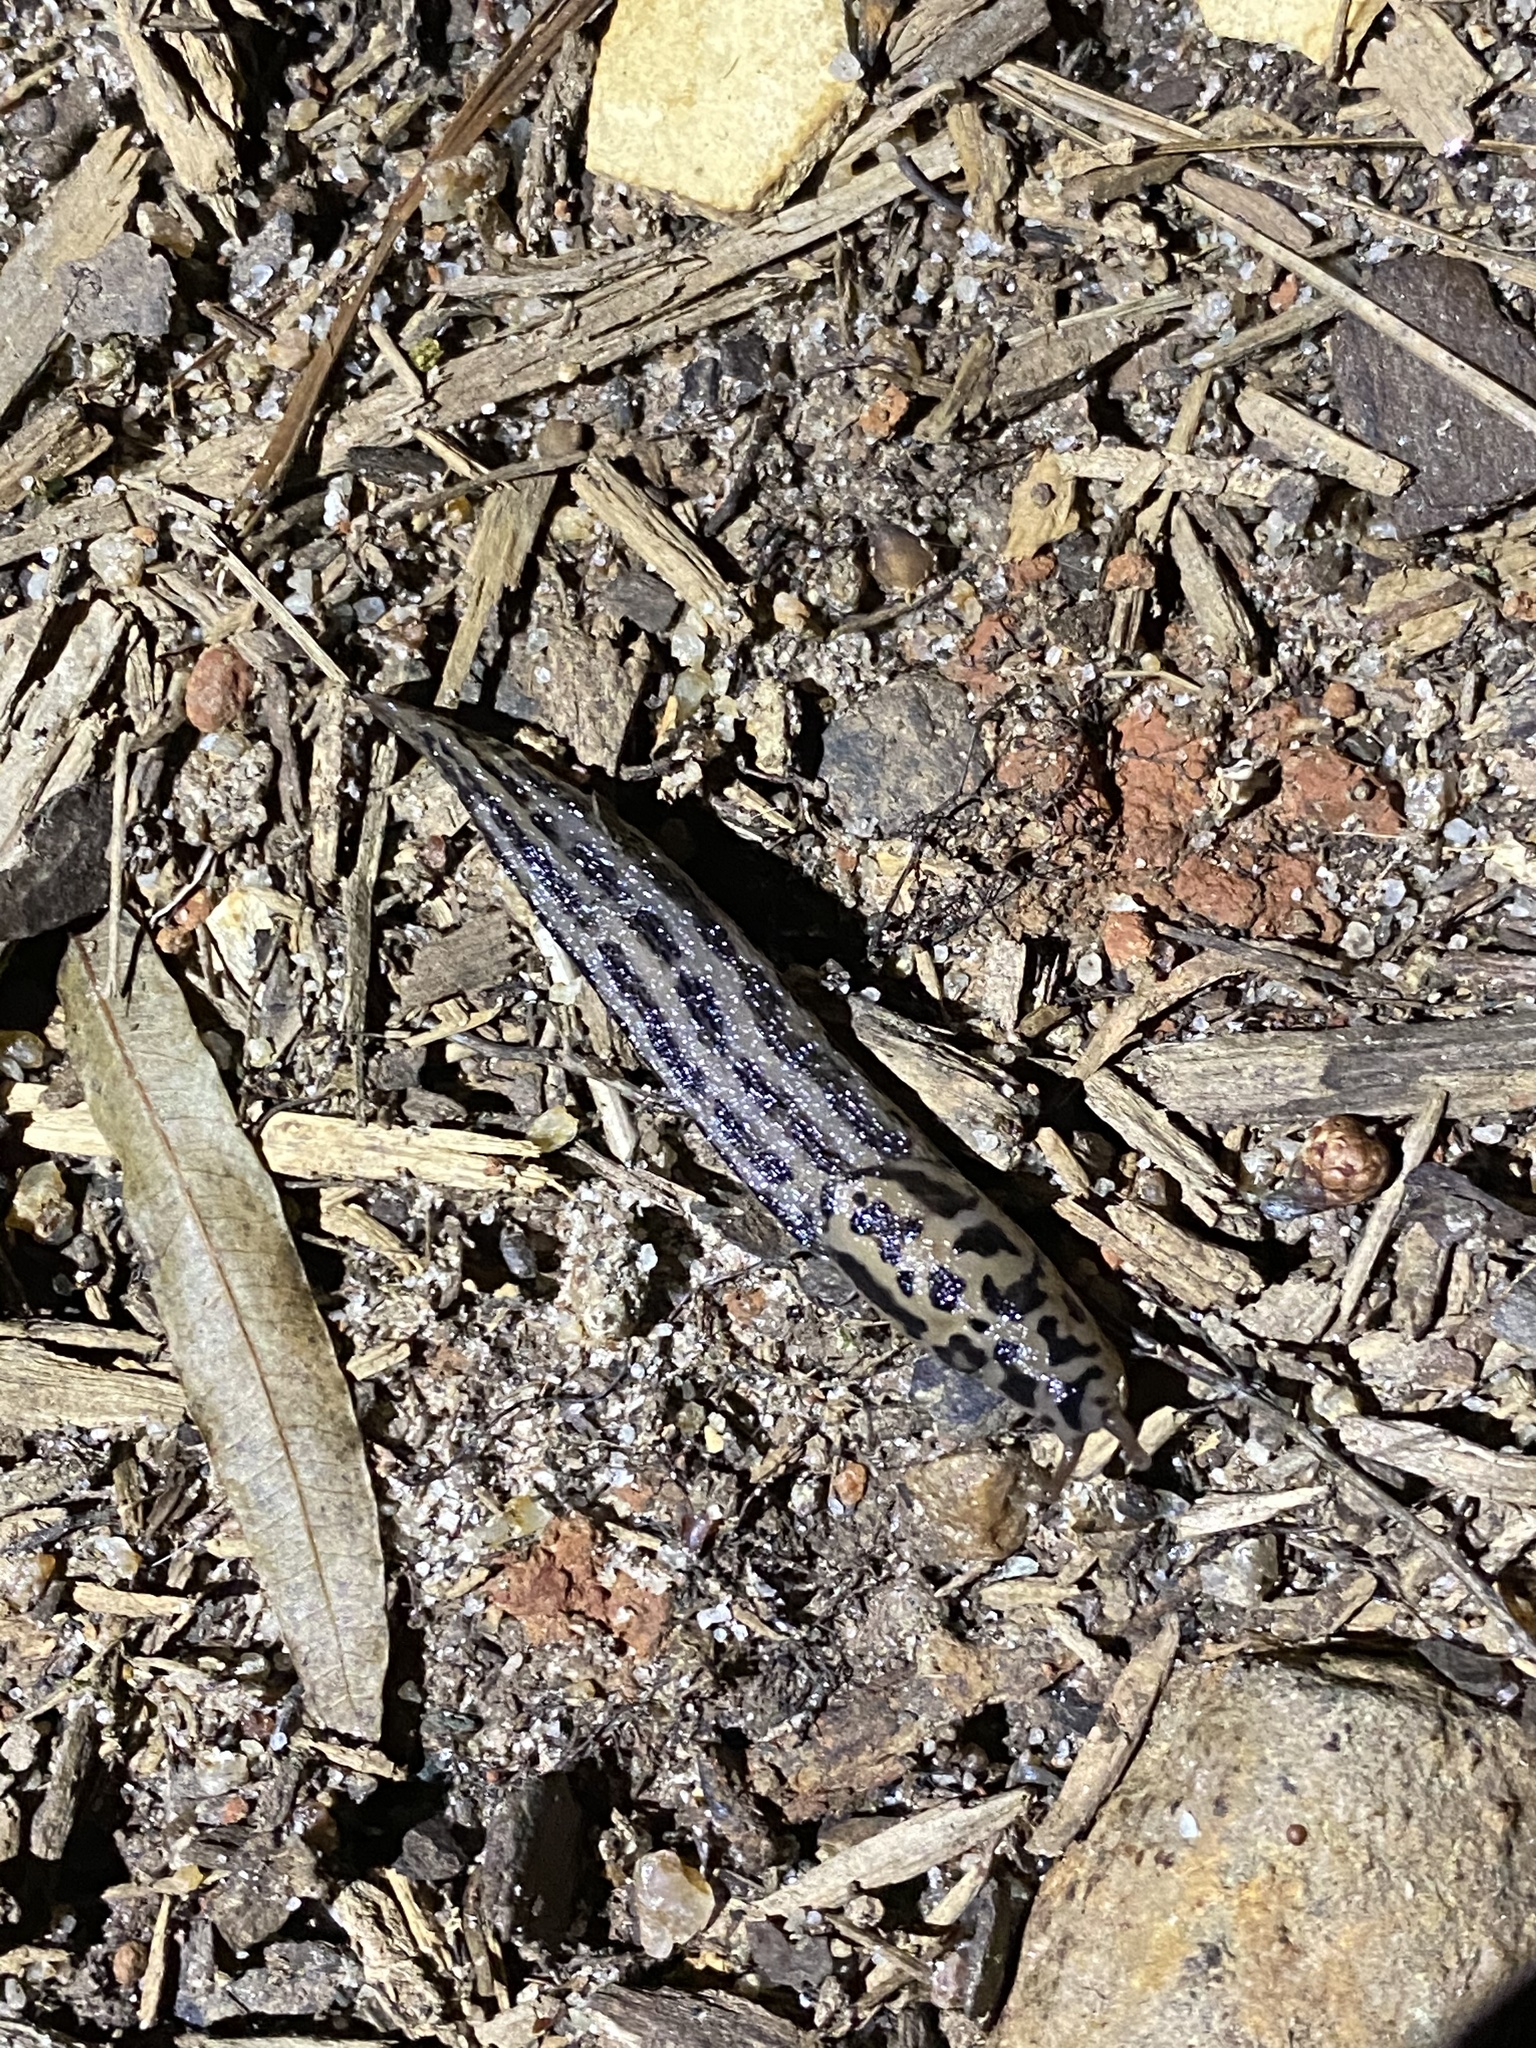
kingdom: Animalia
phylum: Mollusca
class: Gastropoda
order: Stylommatophora
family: Limacidae
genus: Limax
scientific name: Limax maximus
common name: Great grey slug
